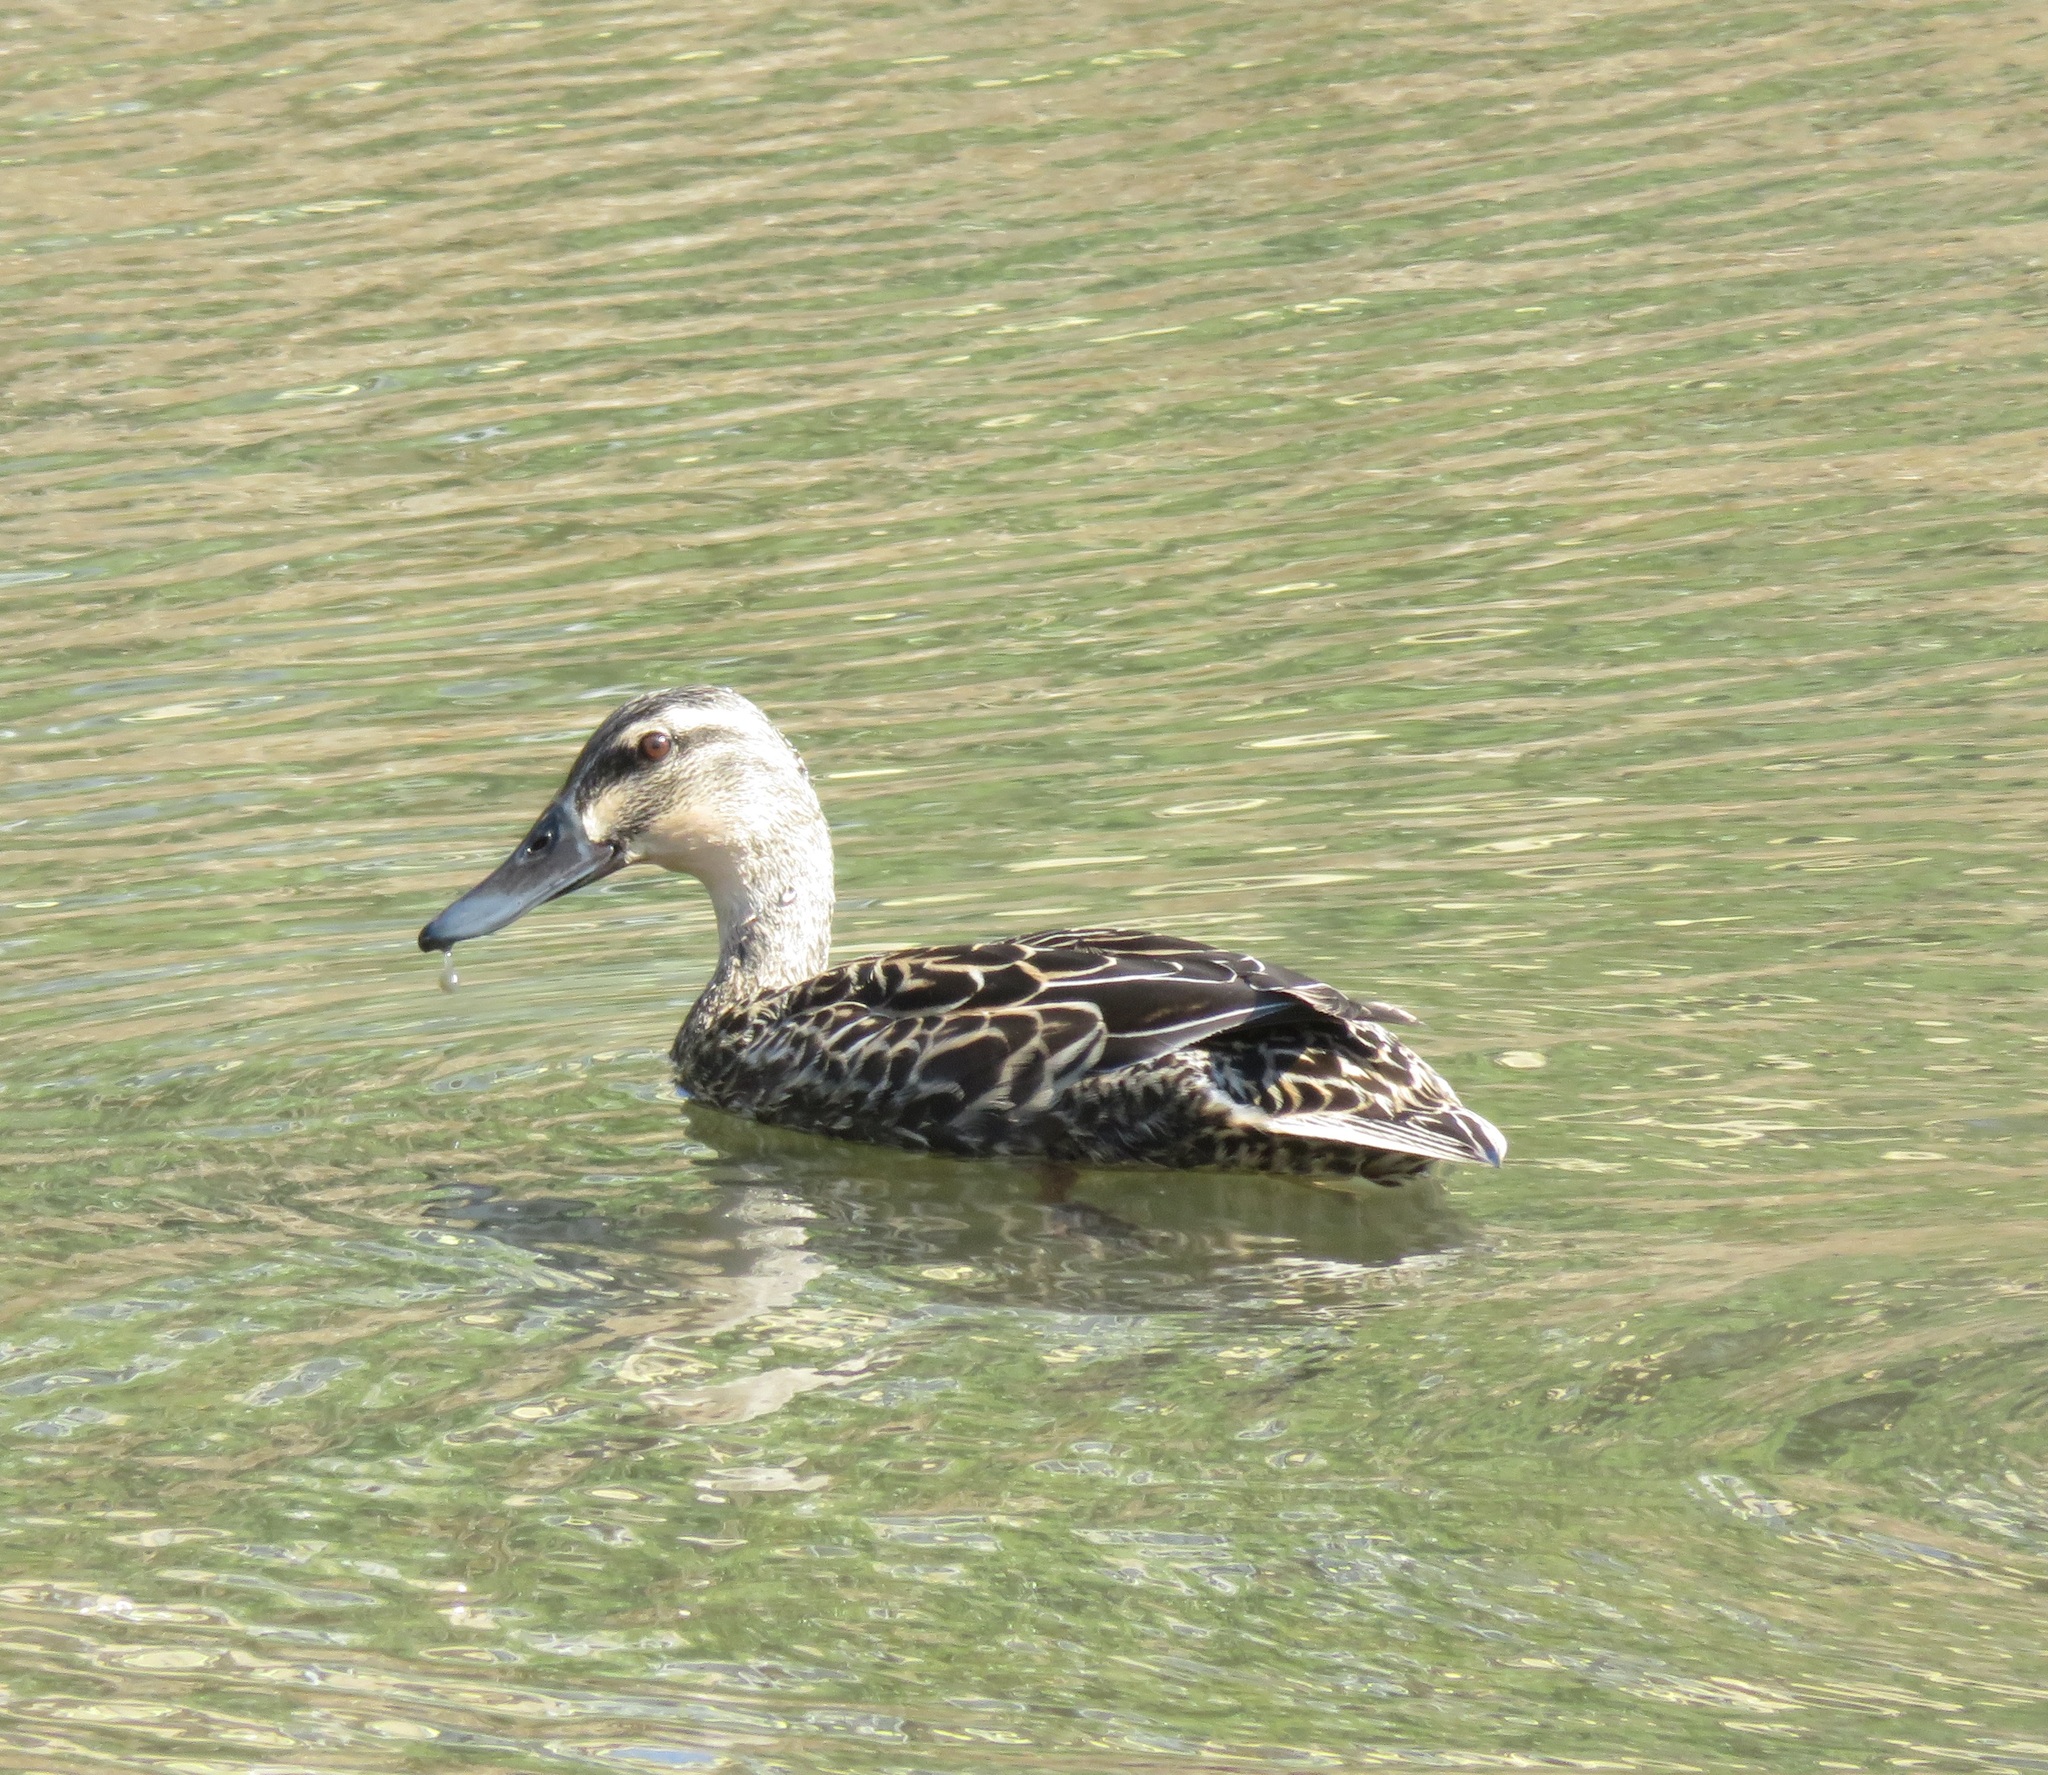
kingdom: Animalia
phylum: Chordata
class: Aves
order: Anseriformes
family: Anatidae
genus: Anas
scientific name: Anas
